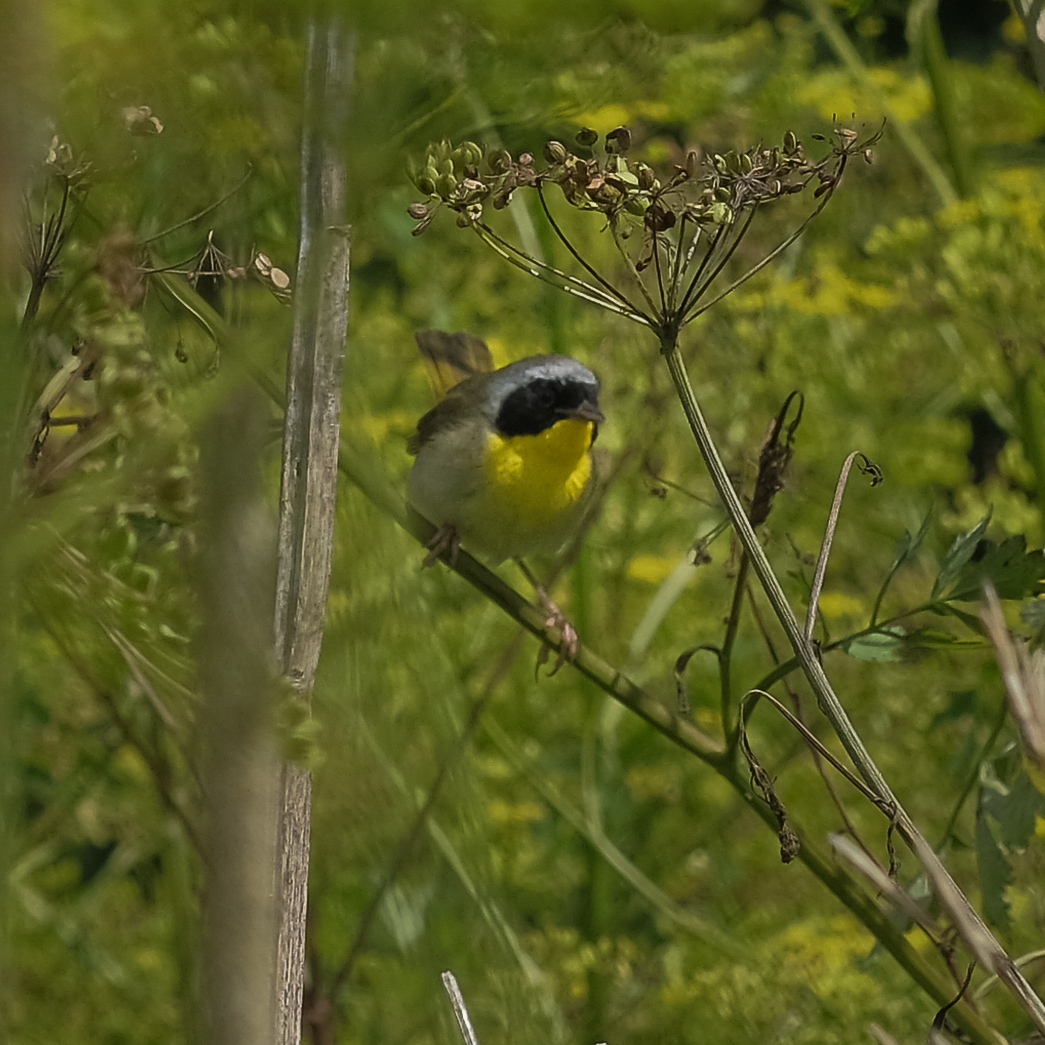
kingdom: Animalia
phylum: Chordata
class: Aves
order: Passeriformes
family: Parulidae
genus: Geothlypis
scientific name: Geothlypis trichas
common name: Common yellowthroat
